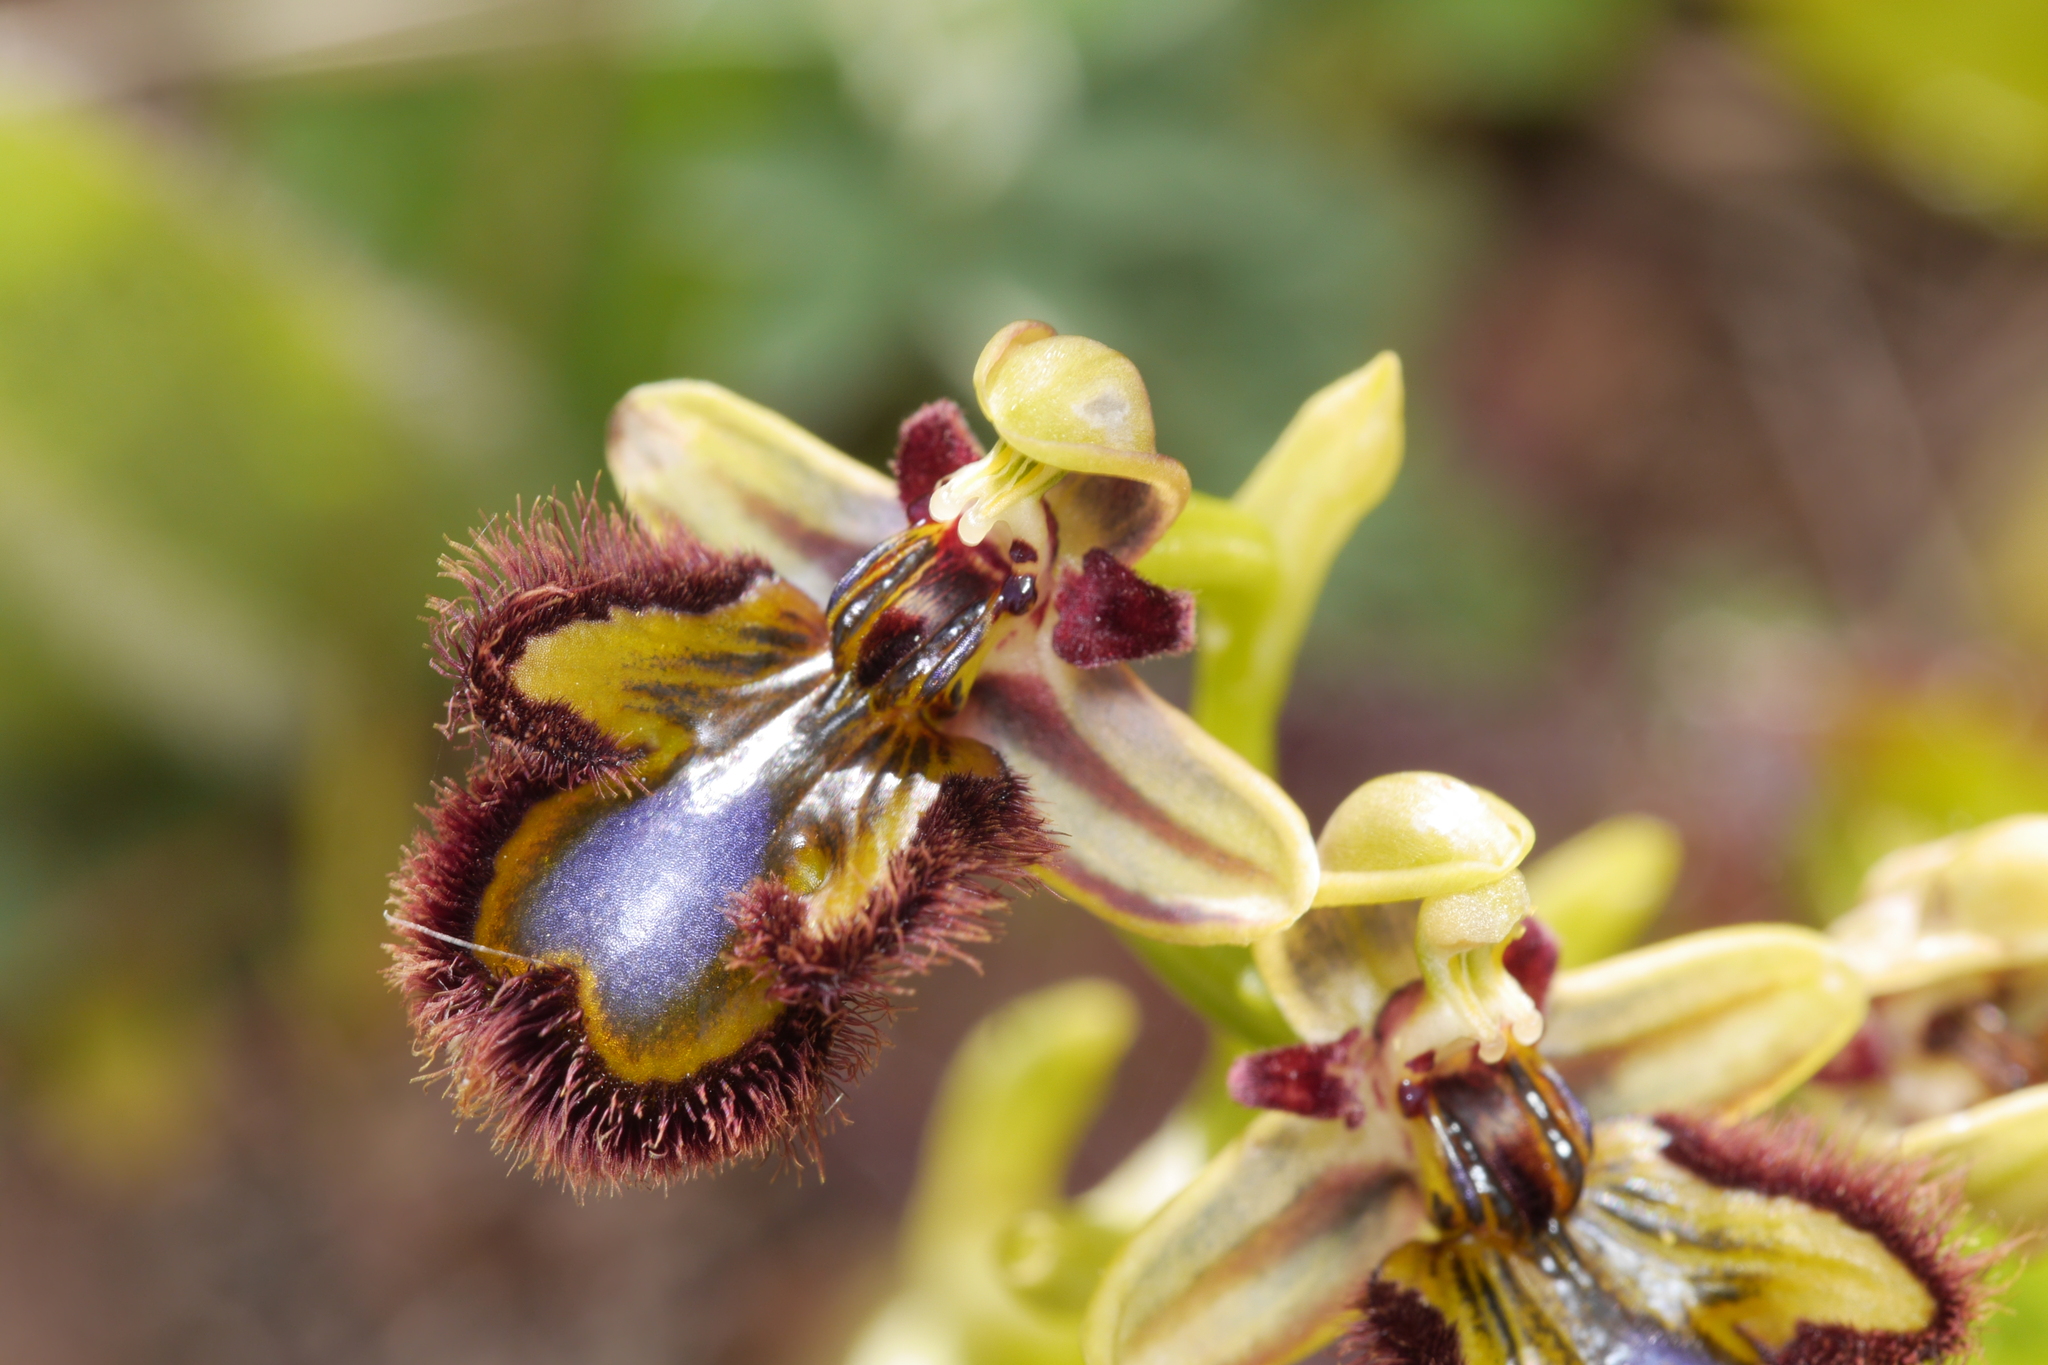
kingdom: Plantae
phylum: Tracheophyta
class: Liliopsida
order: Asparagales
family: Orchidaceae
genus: Ophrys
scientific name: Ophrys speculum
